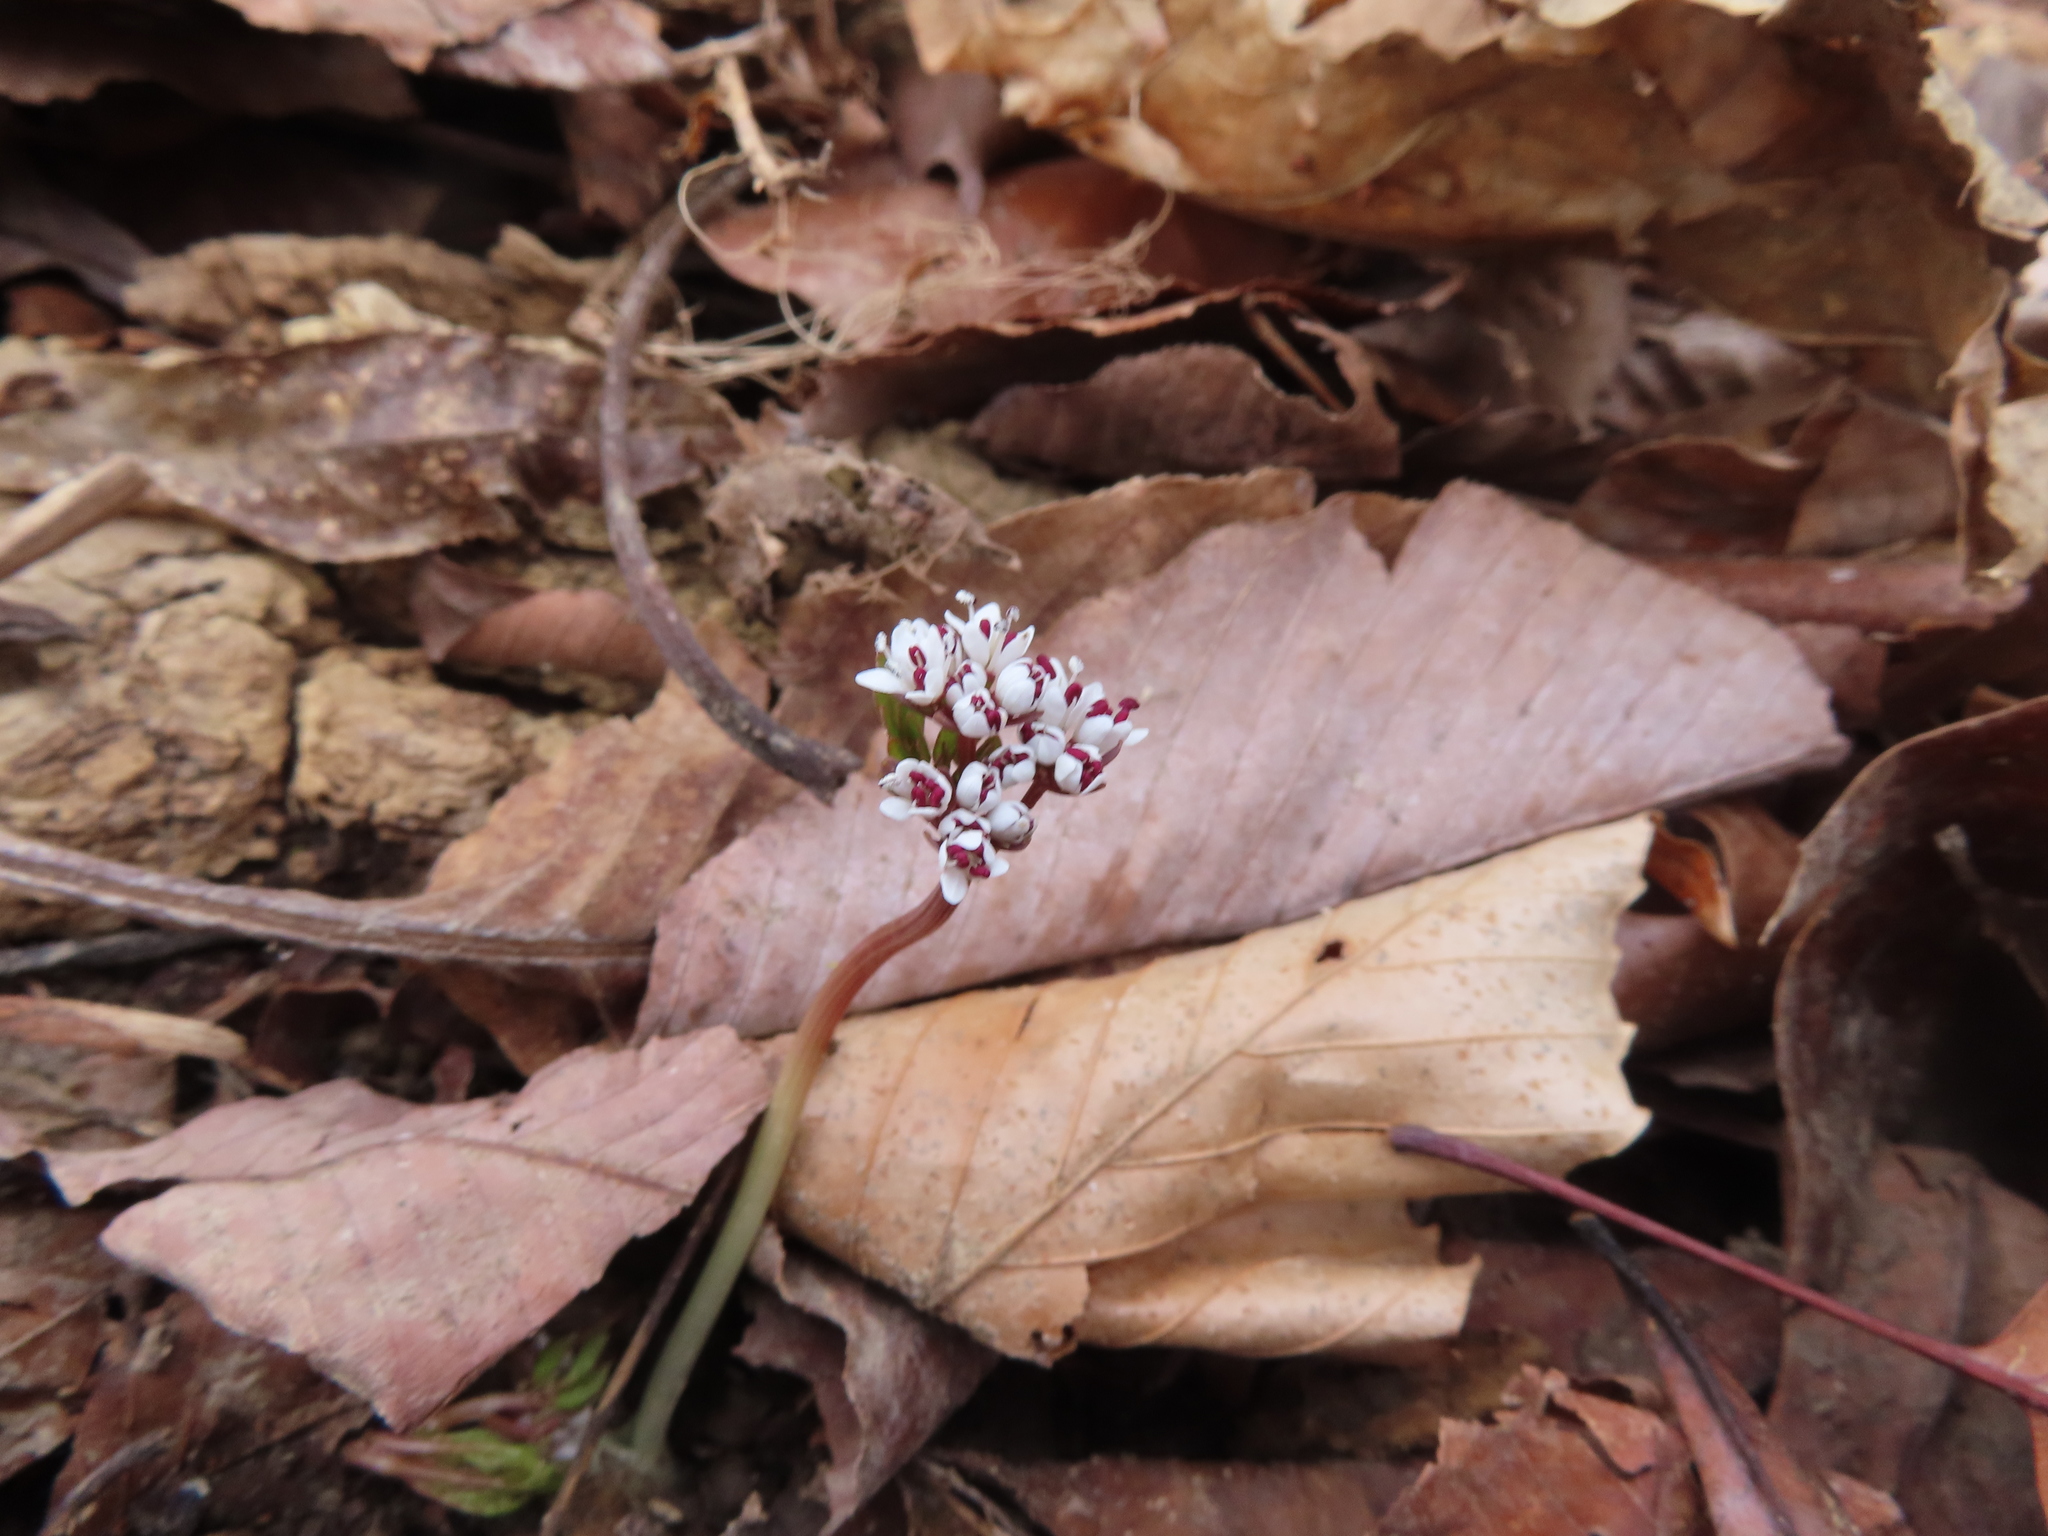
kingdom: Plantae
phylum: Tracheophyta
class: Magnoliopsida
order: Apiales
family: Apiaceae
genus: Erigenia
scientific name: Erigenia bulbosa
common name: Pepper-and-salt
